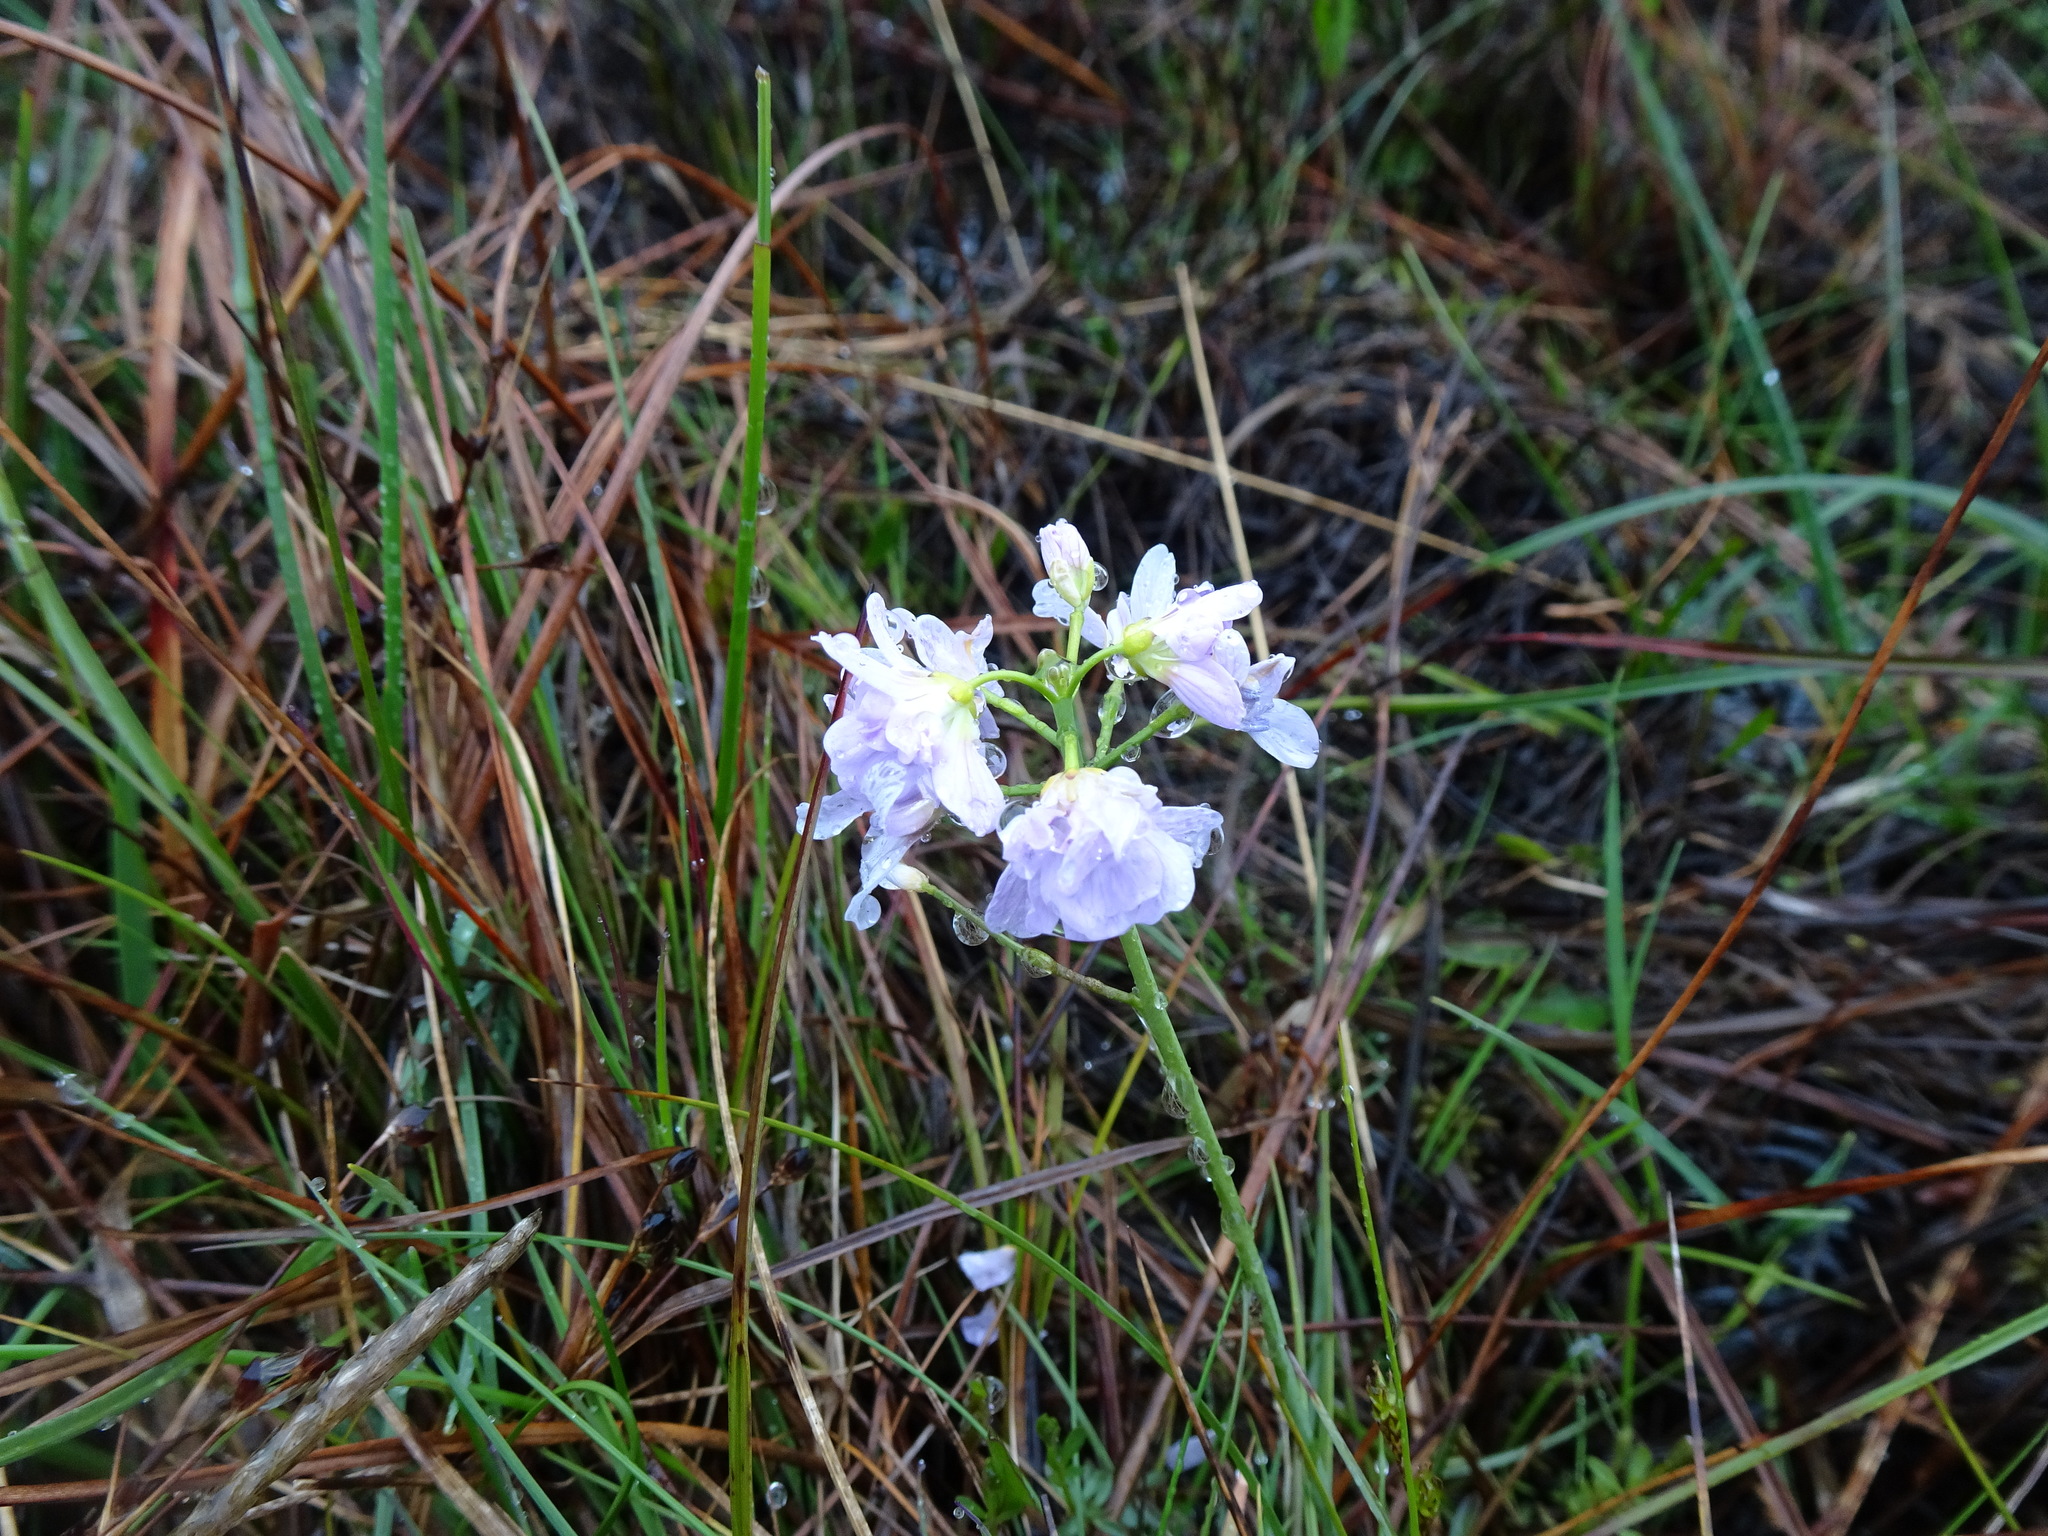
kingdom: Plantae
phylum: Tracheophyta
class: Magnoliopsida
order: Brassicales
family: Brassicaceae
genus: Cardamine
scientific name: Cardamine pratensis
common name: Cuckoo flower
